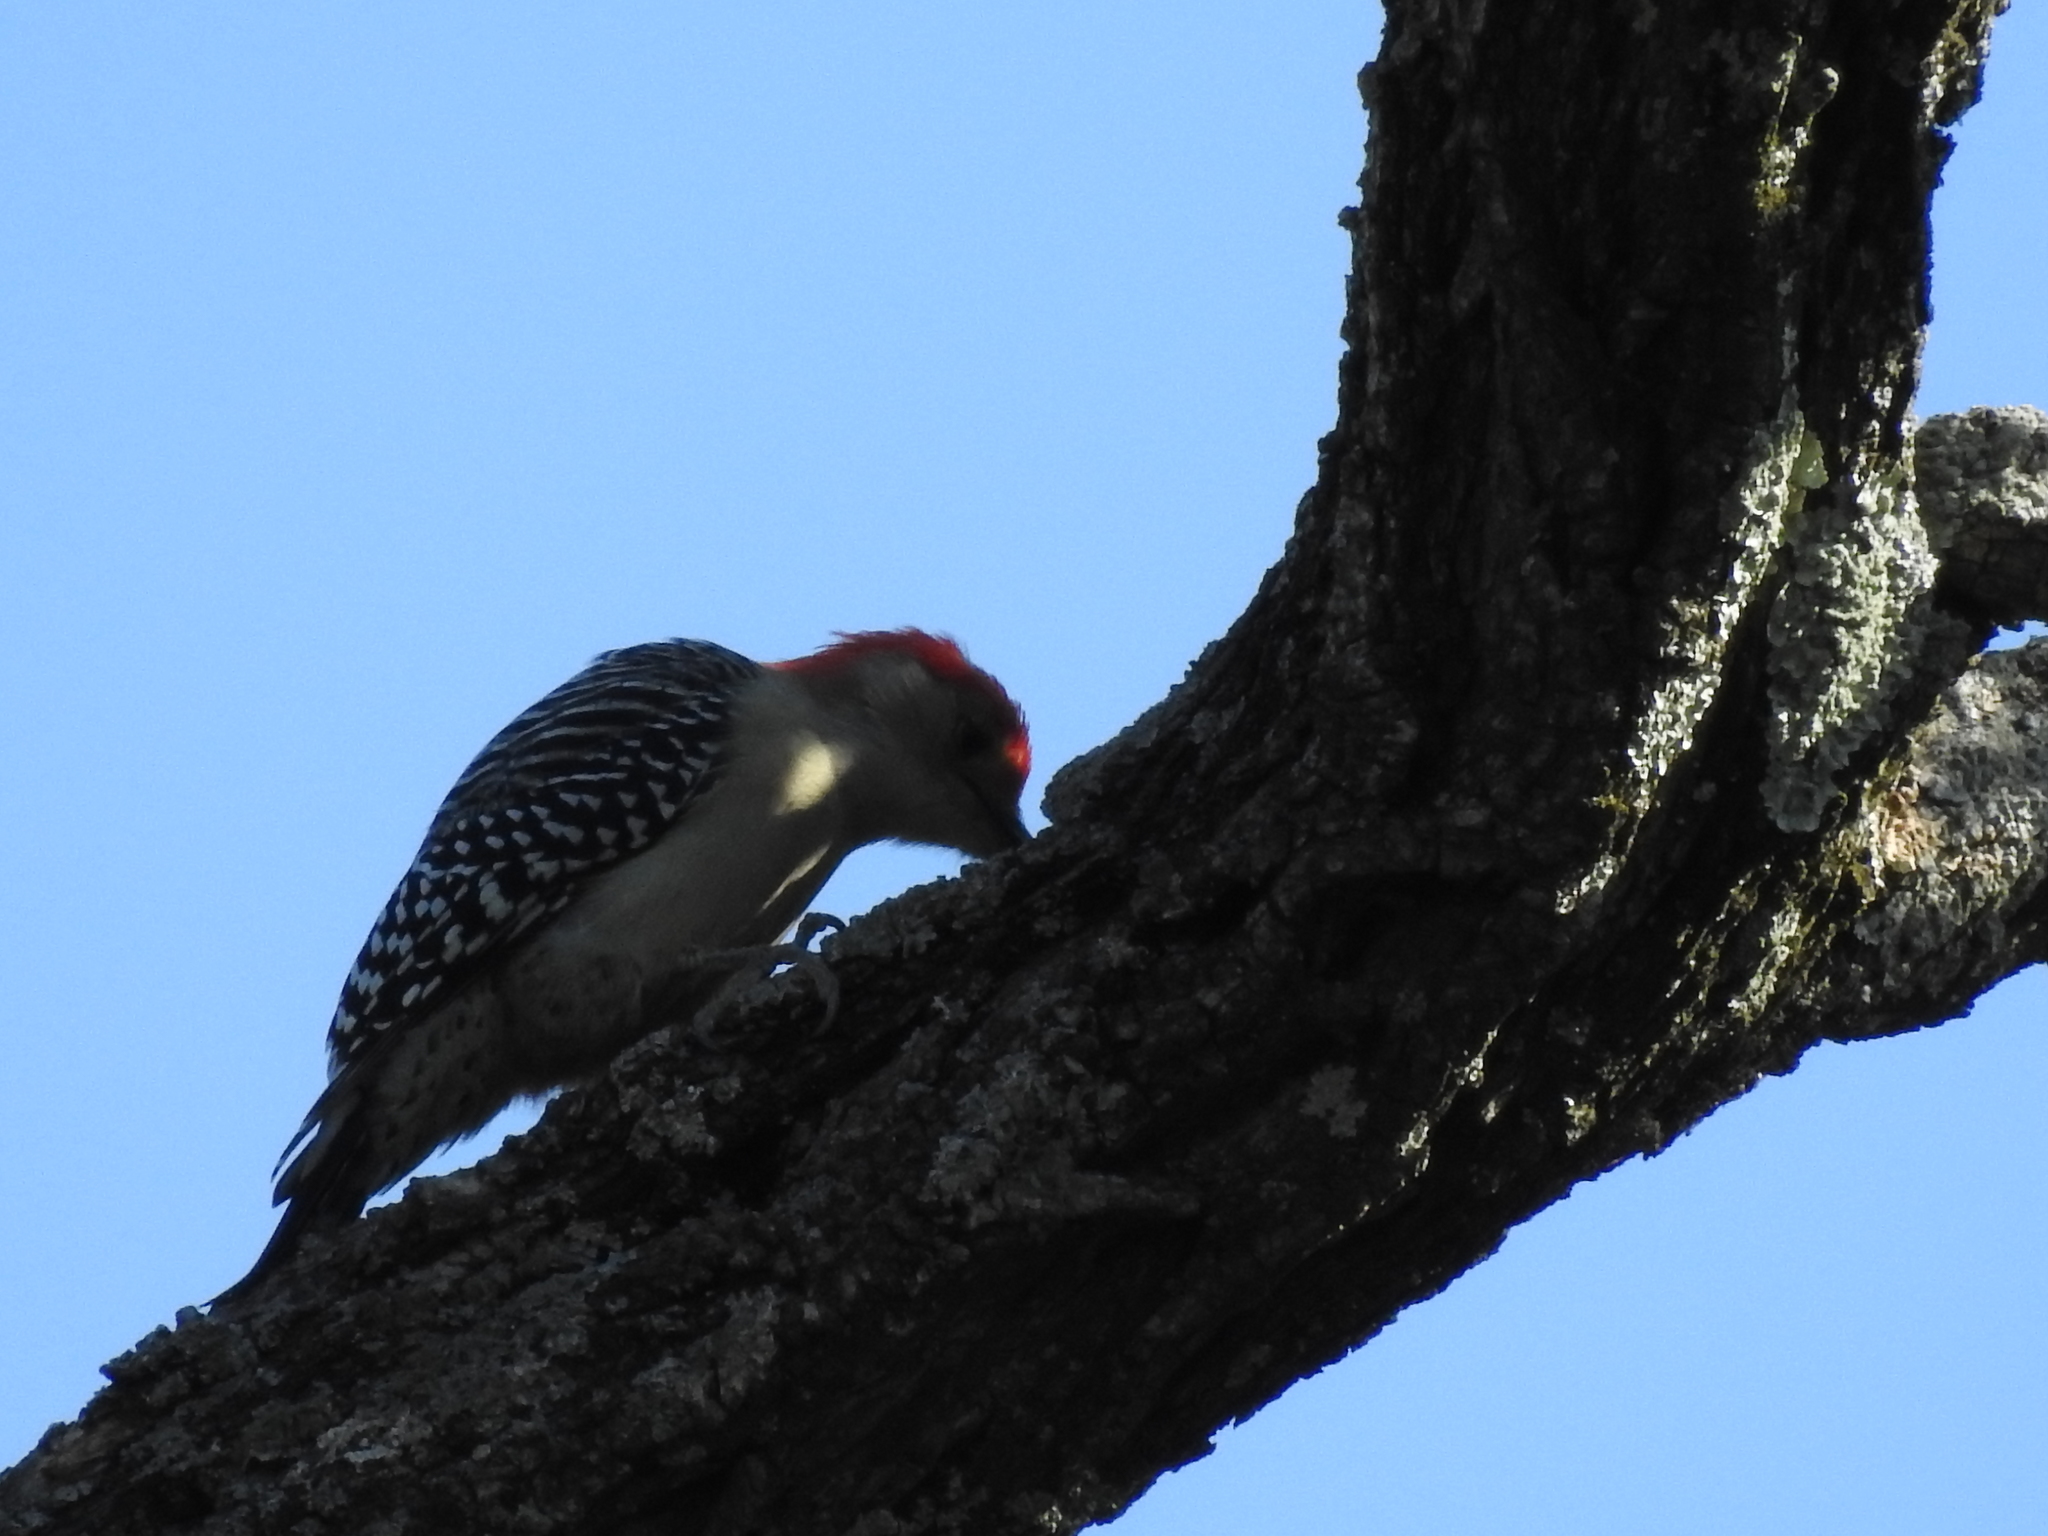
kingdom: Animalia
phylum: Chordata
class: Aves
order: Piciformes
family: Picidae
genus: Melanerpes
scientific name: Melanerpes carolinus
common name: Red-bellied woodpecker
